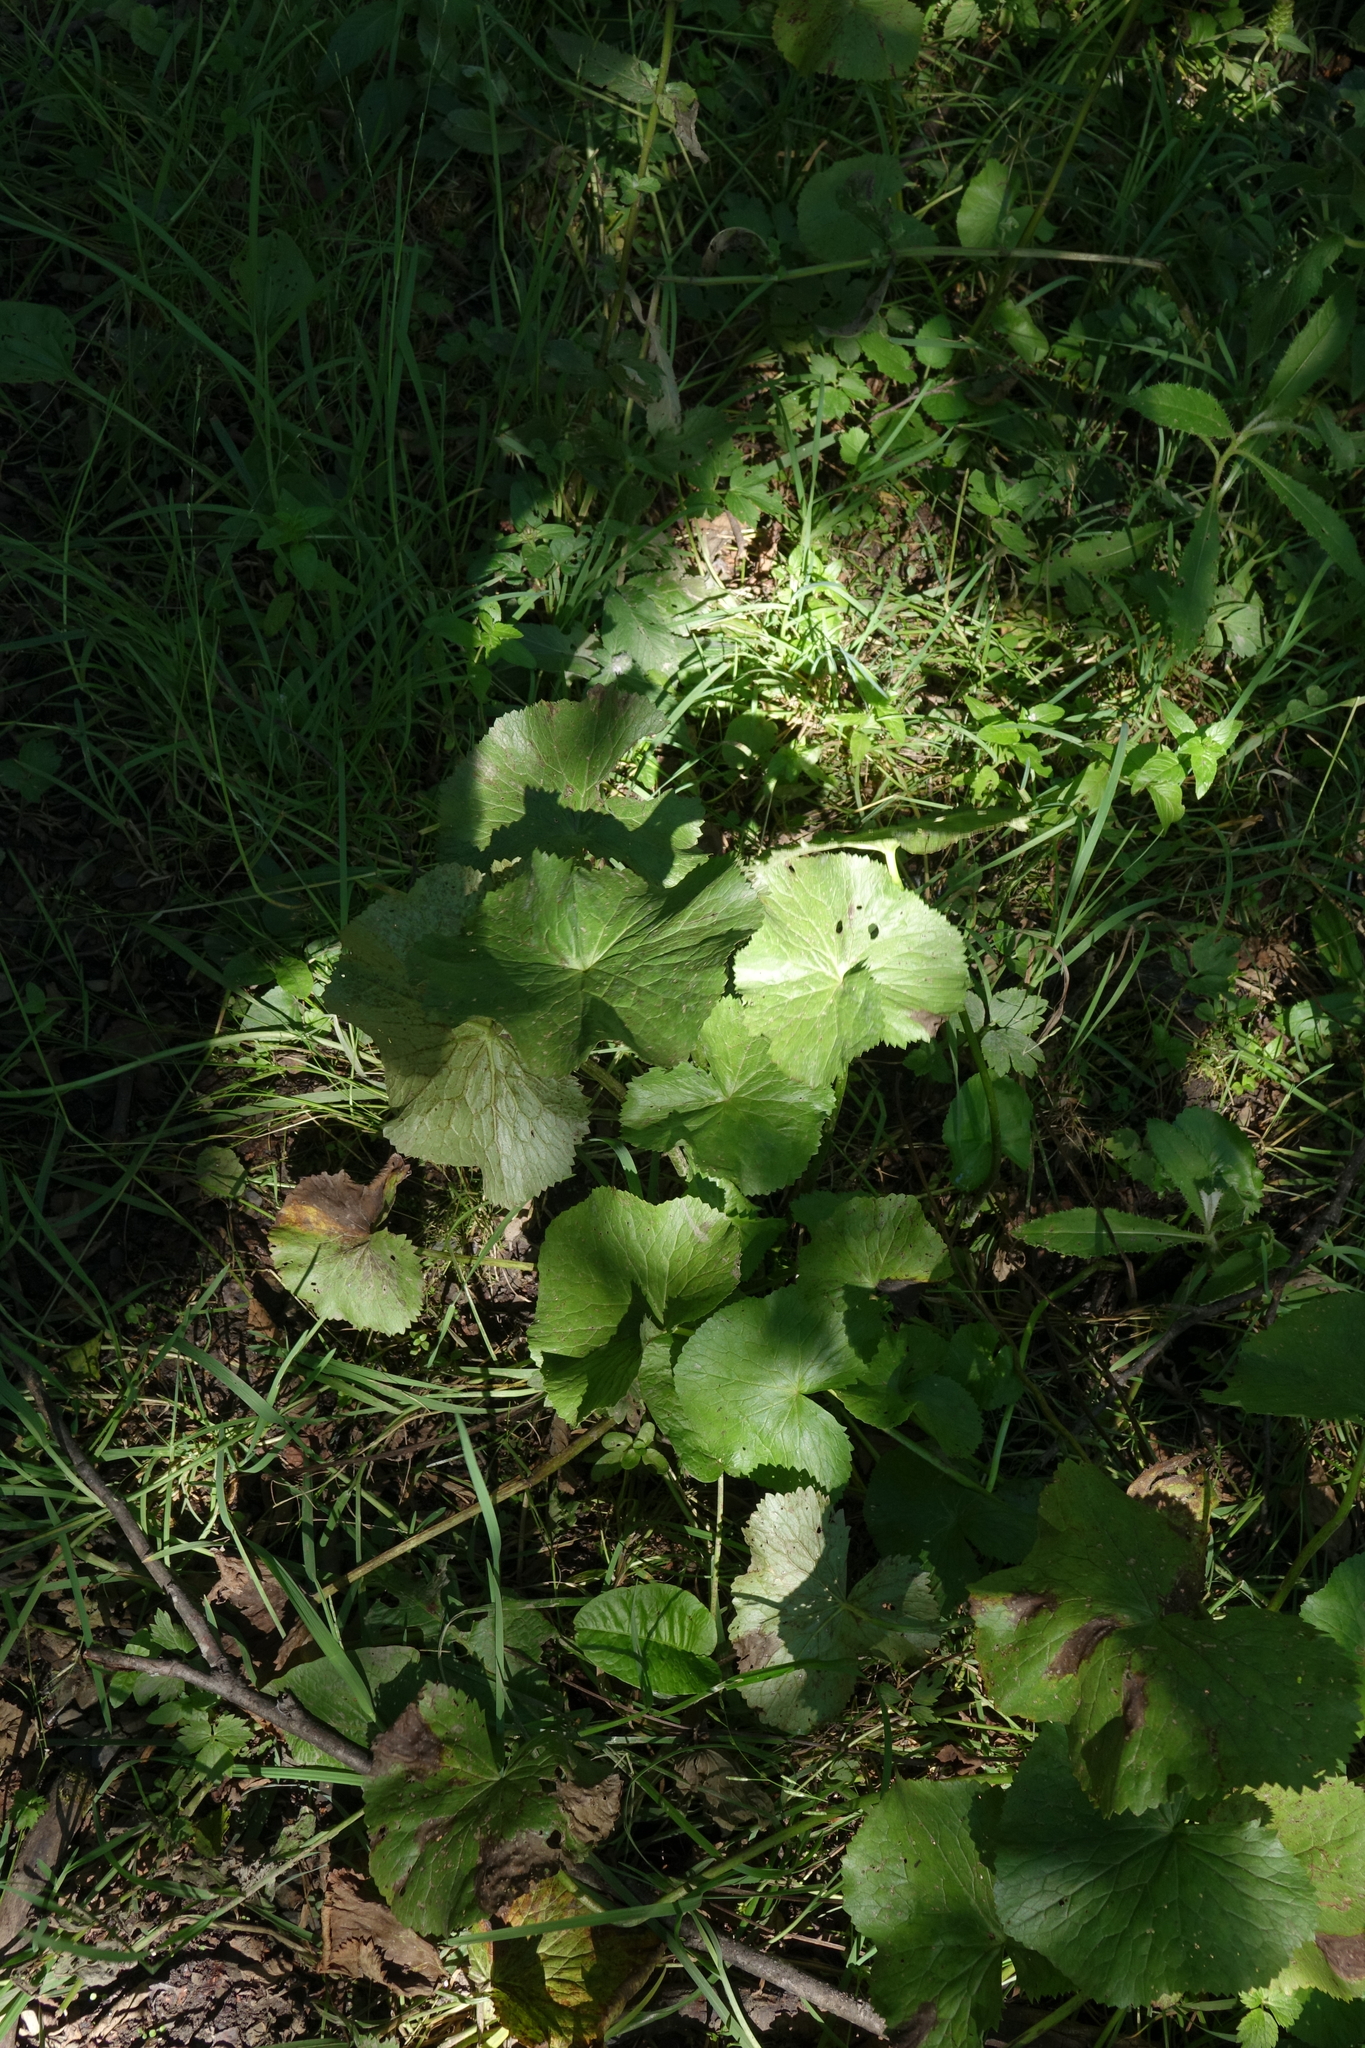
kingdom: Plantae
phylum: Tracheophyta
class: Magnoliopsida
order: Ranunculales
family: Ranunculaceae
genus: Caltha
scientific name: Caltha palustris
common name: Marsh marigold
